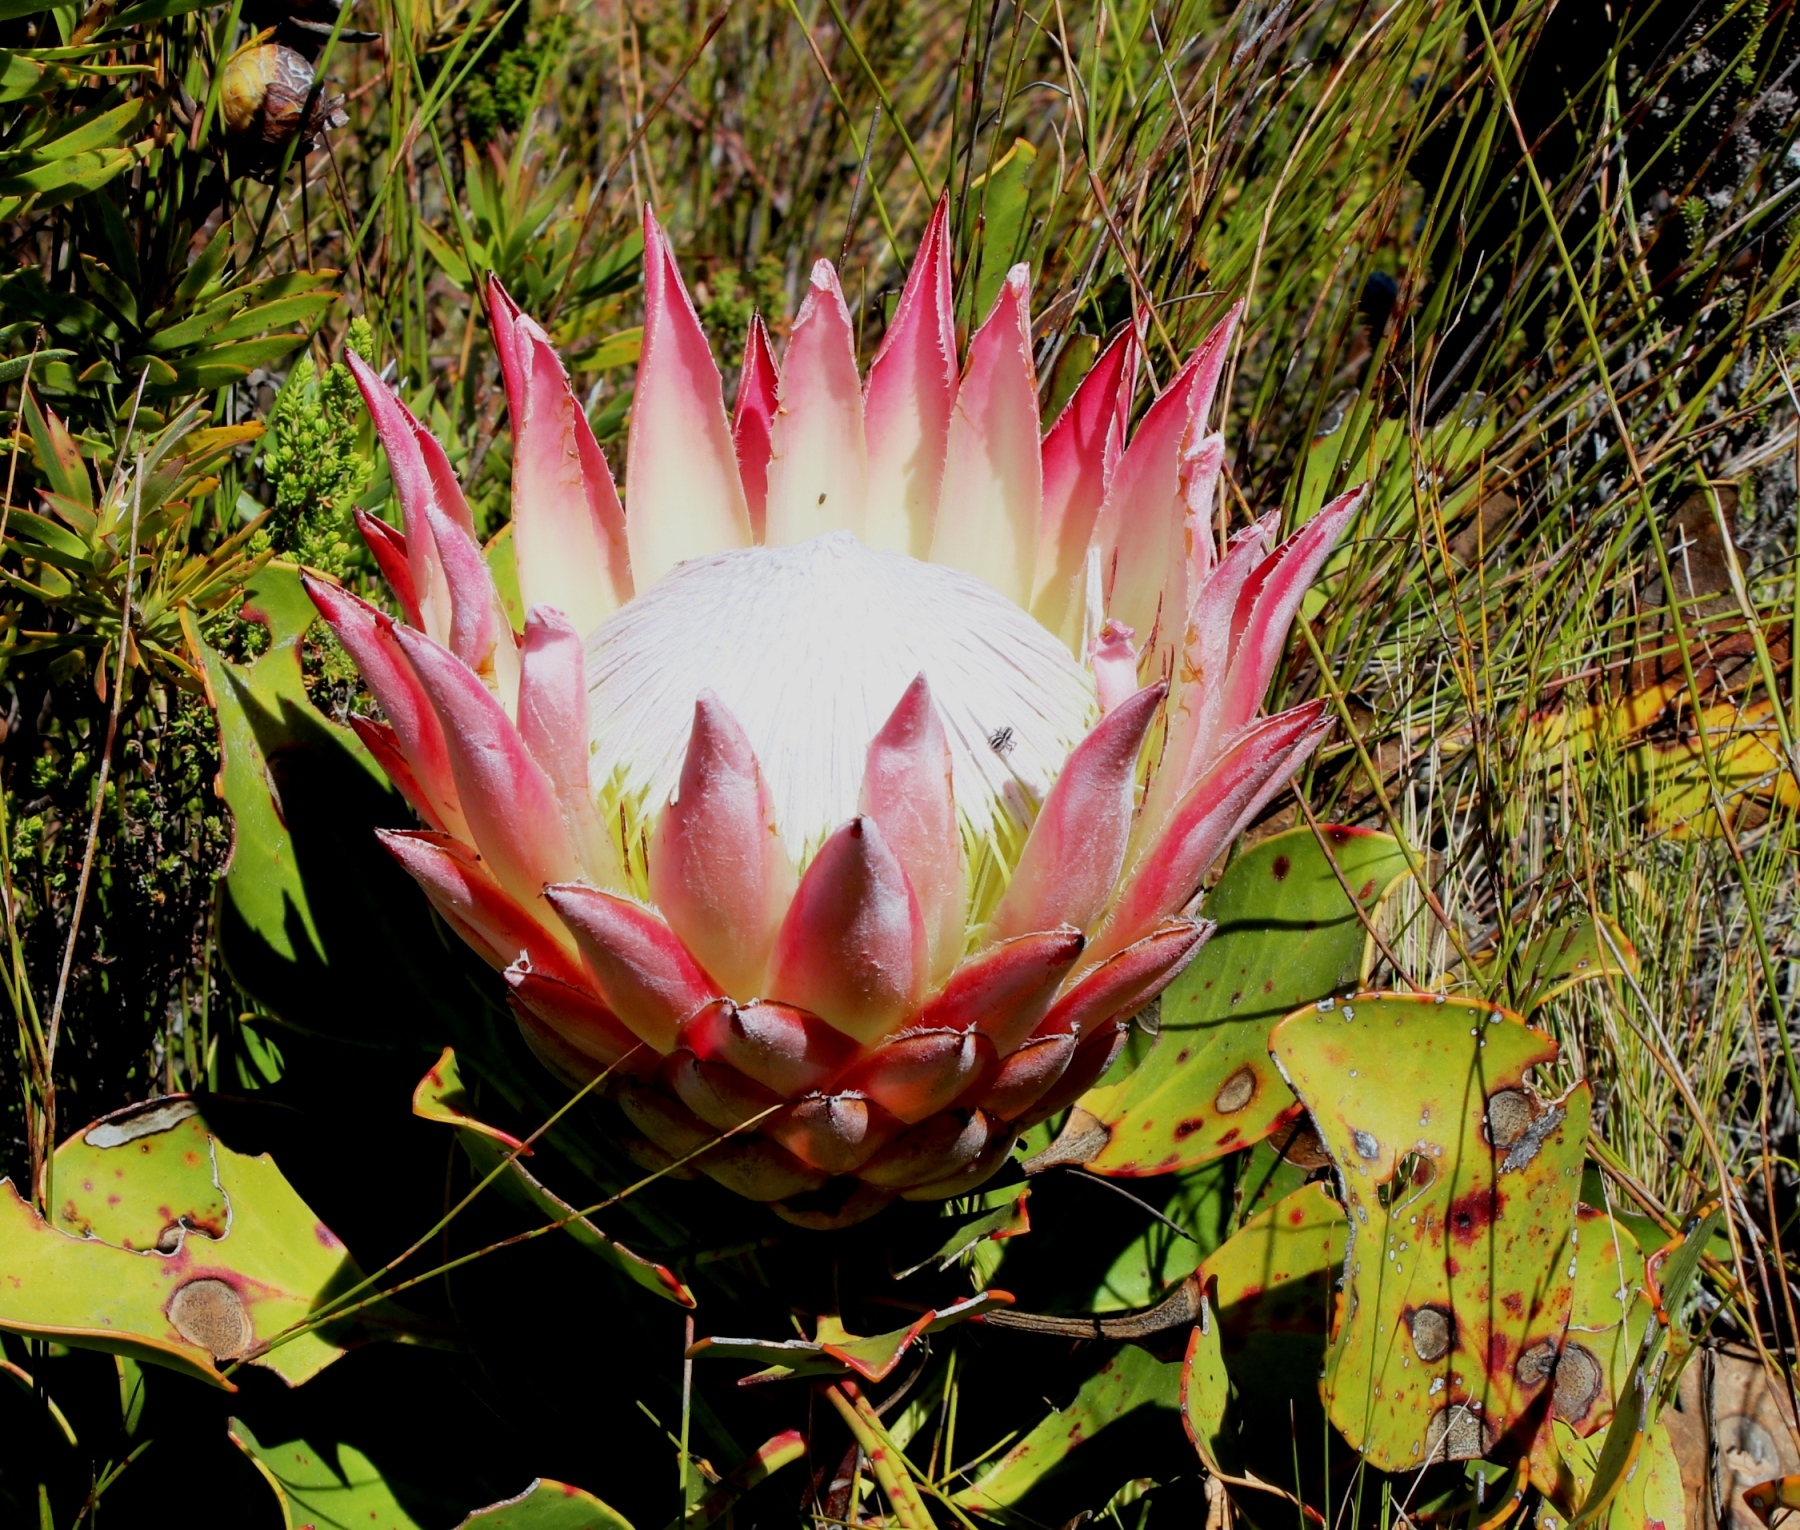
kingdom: Plantae
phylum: Tracheophyta
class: Magnoliopsida
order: Proteales
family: Proteaceae
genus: Protea
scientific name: Protea cynaroides
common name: King protea
